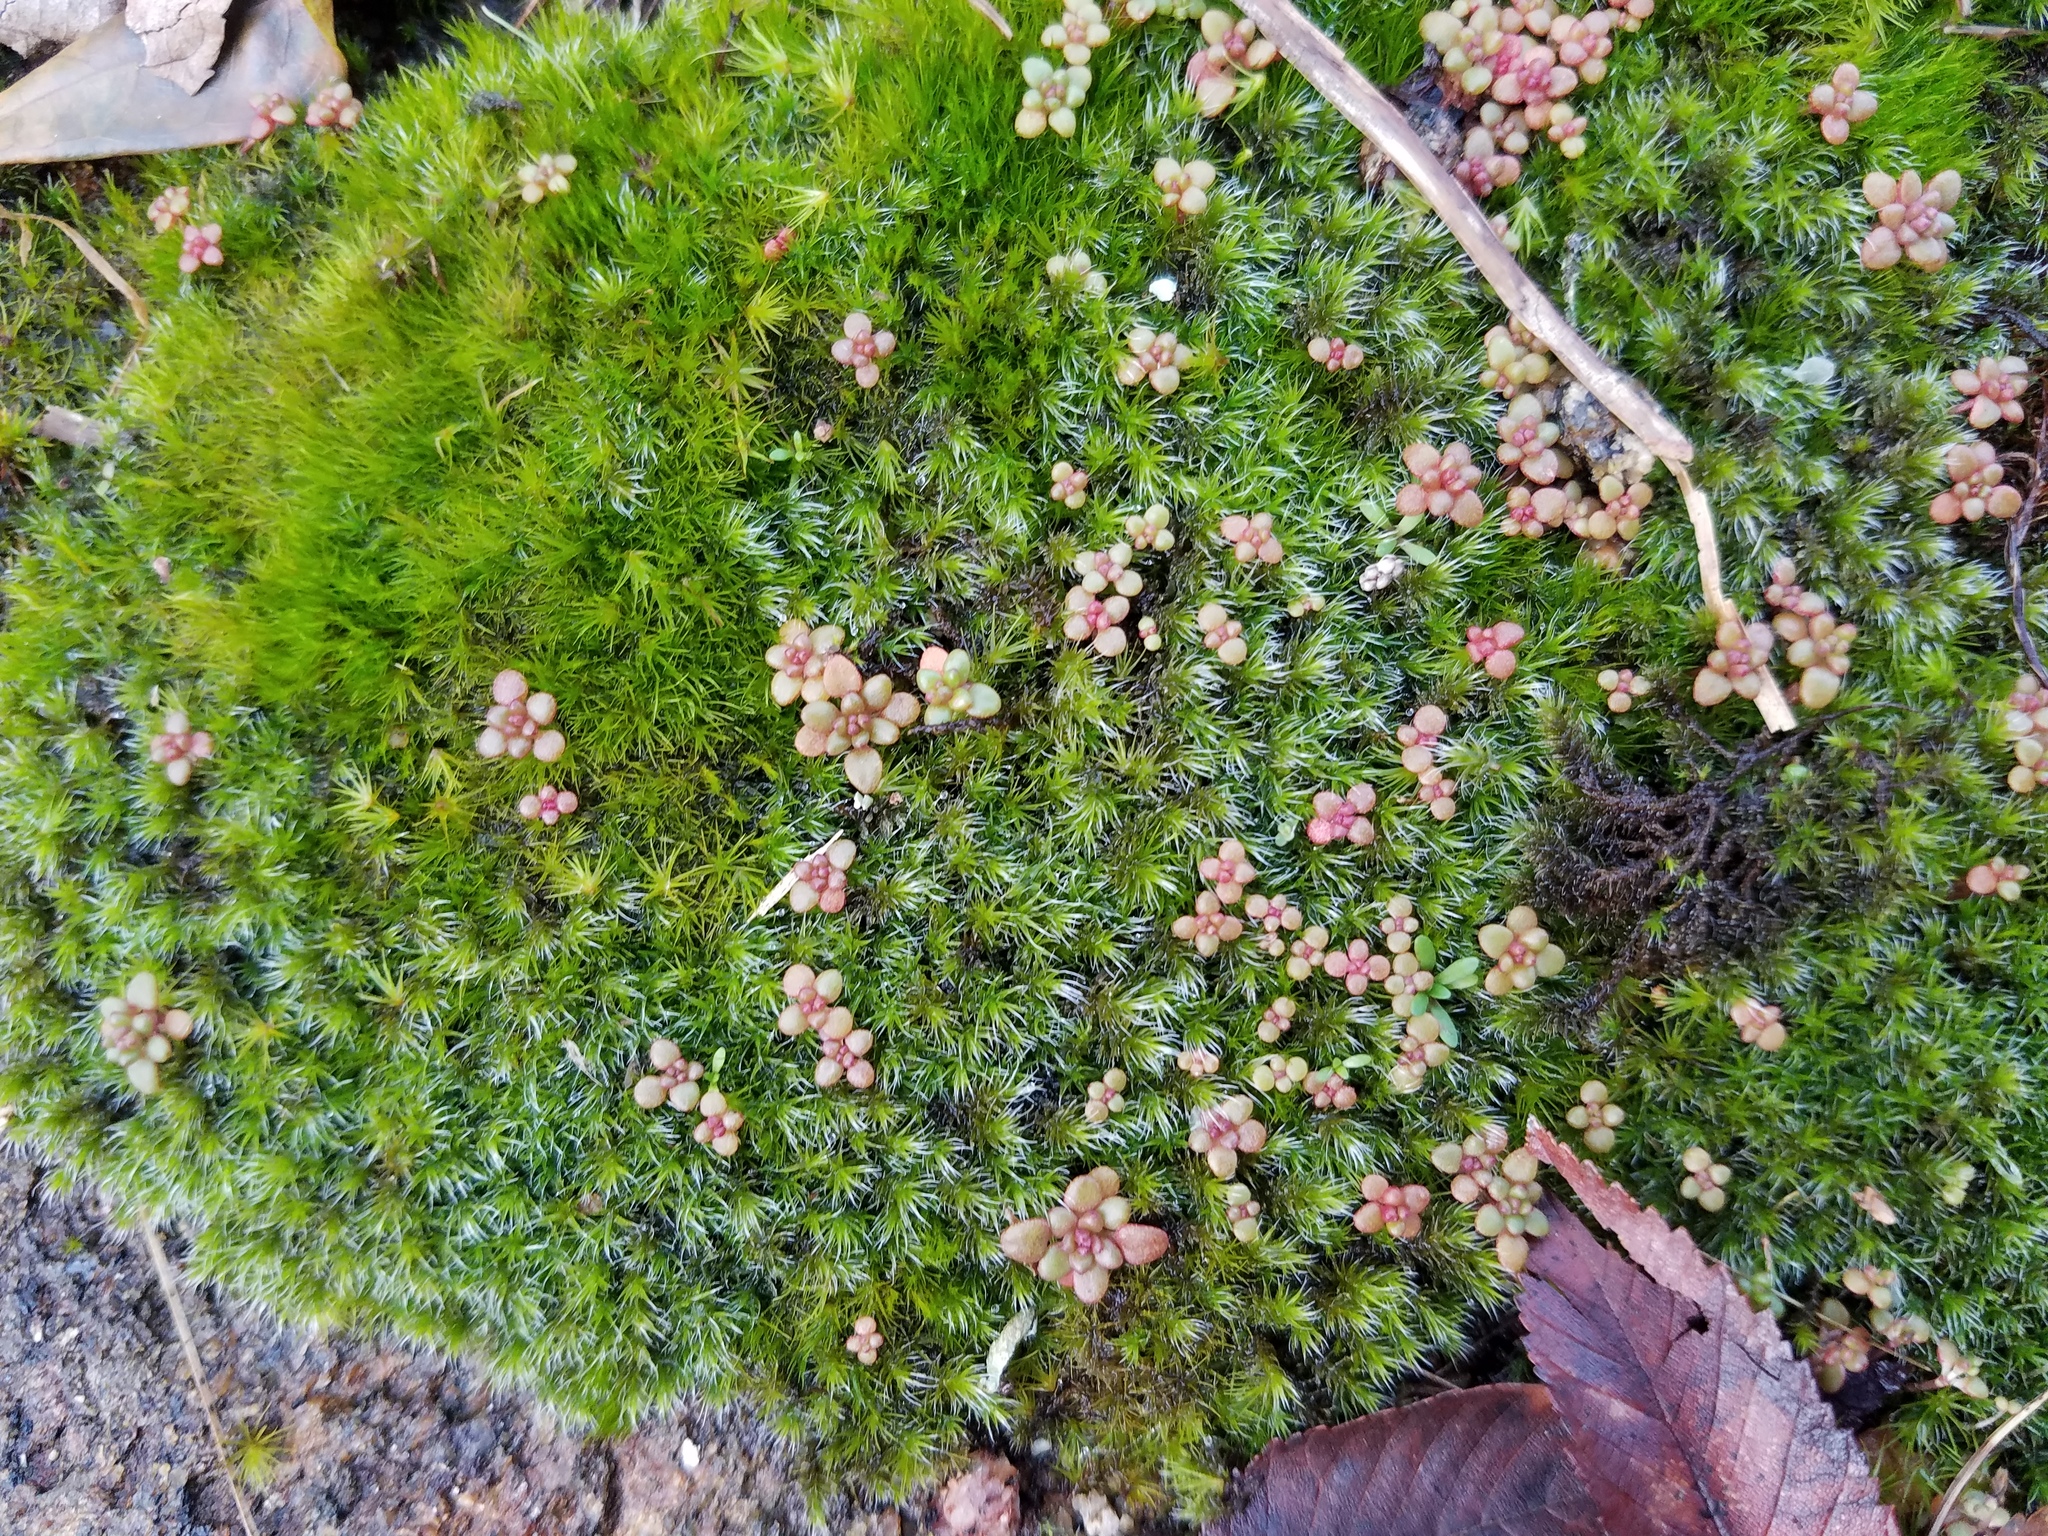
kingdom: Plantae
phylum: Tracheophyta
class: Magnoliopsida
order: Saxifragales
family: Crassulaceae
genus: Sedum
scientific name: Sedum smallii
